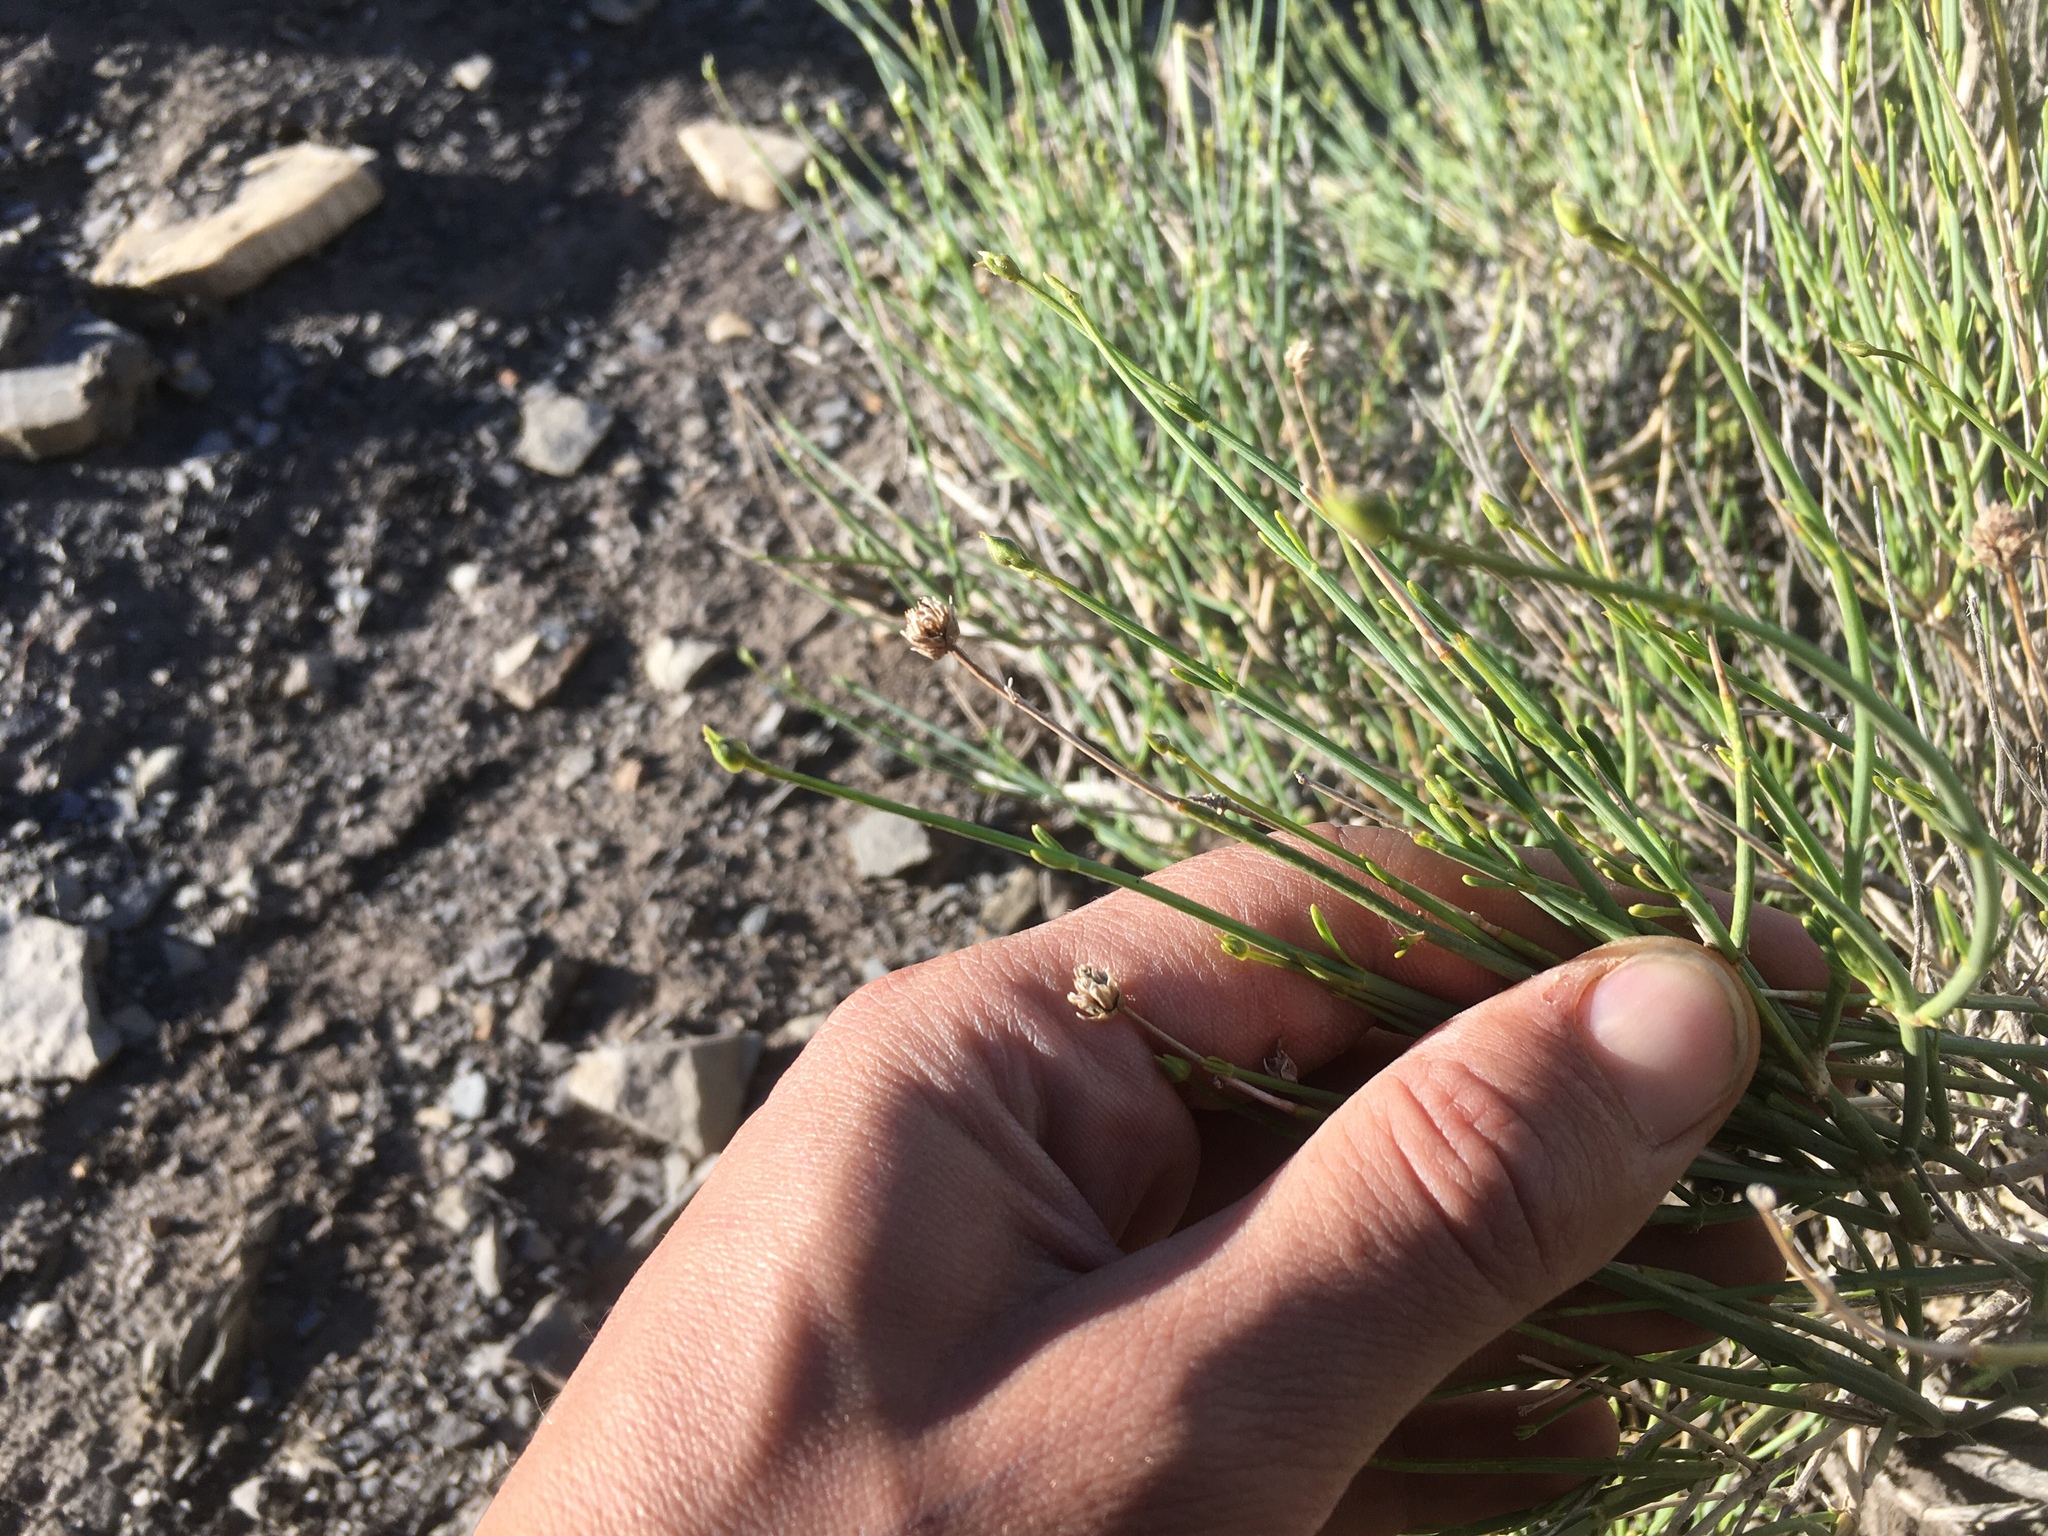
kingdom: Plantae
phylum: Tracheophyta
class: Magnoliopsida
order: Asterales
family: Asteraceae
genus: Pseudobaccharis
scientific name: Pseudobaccharis retamoides
